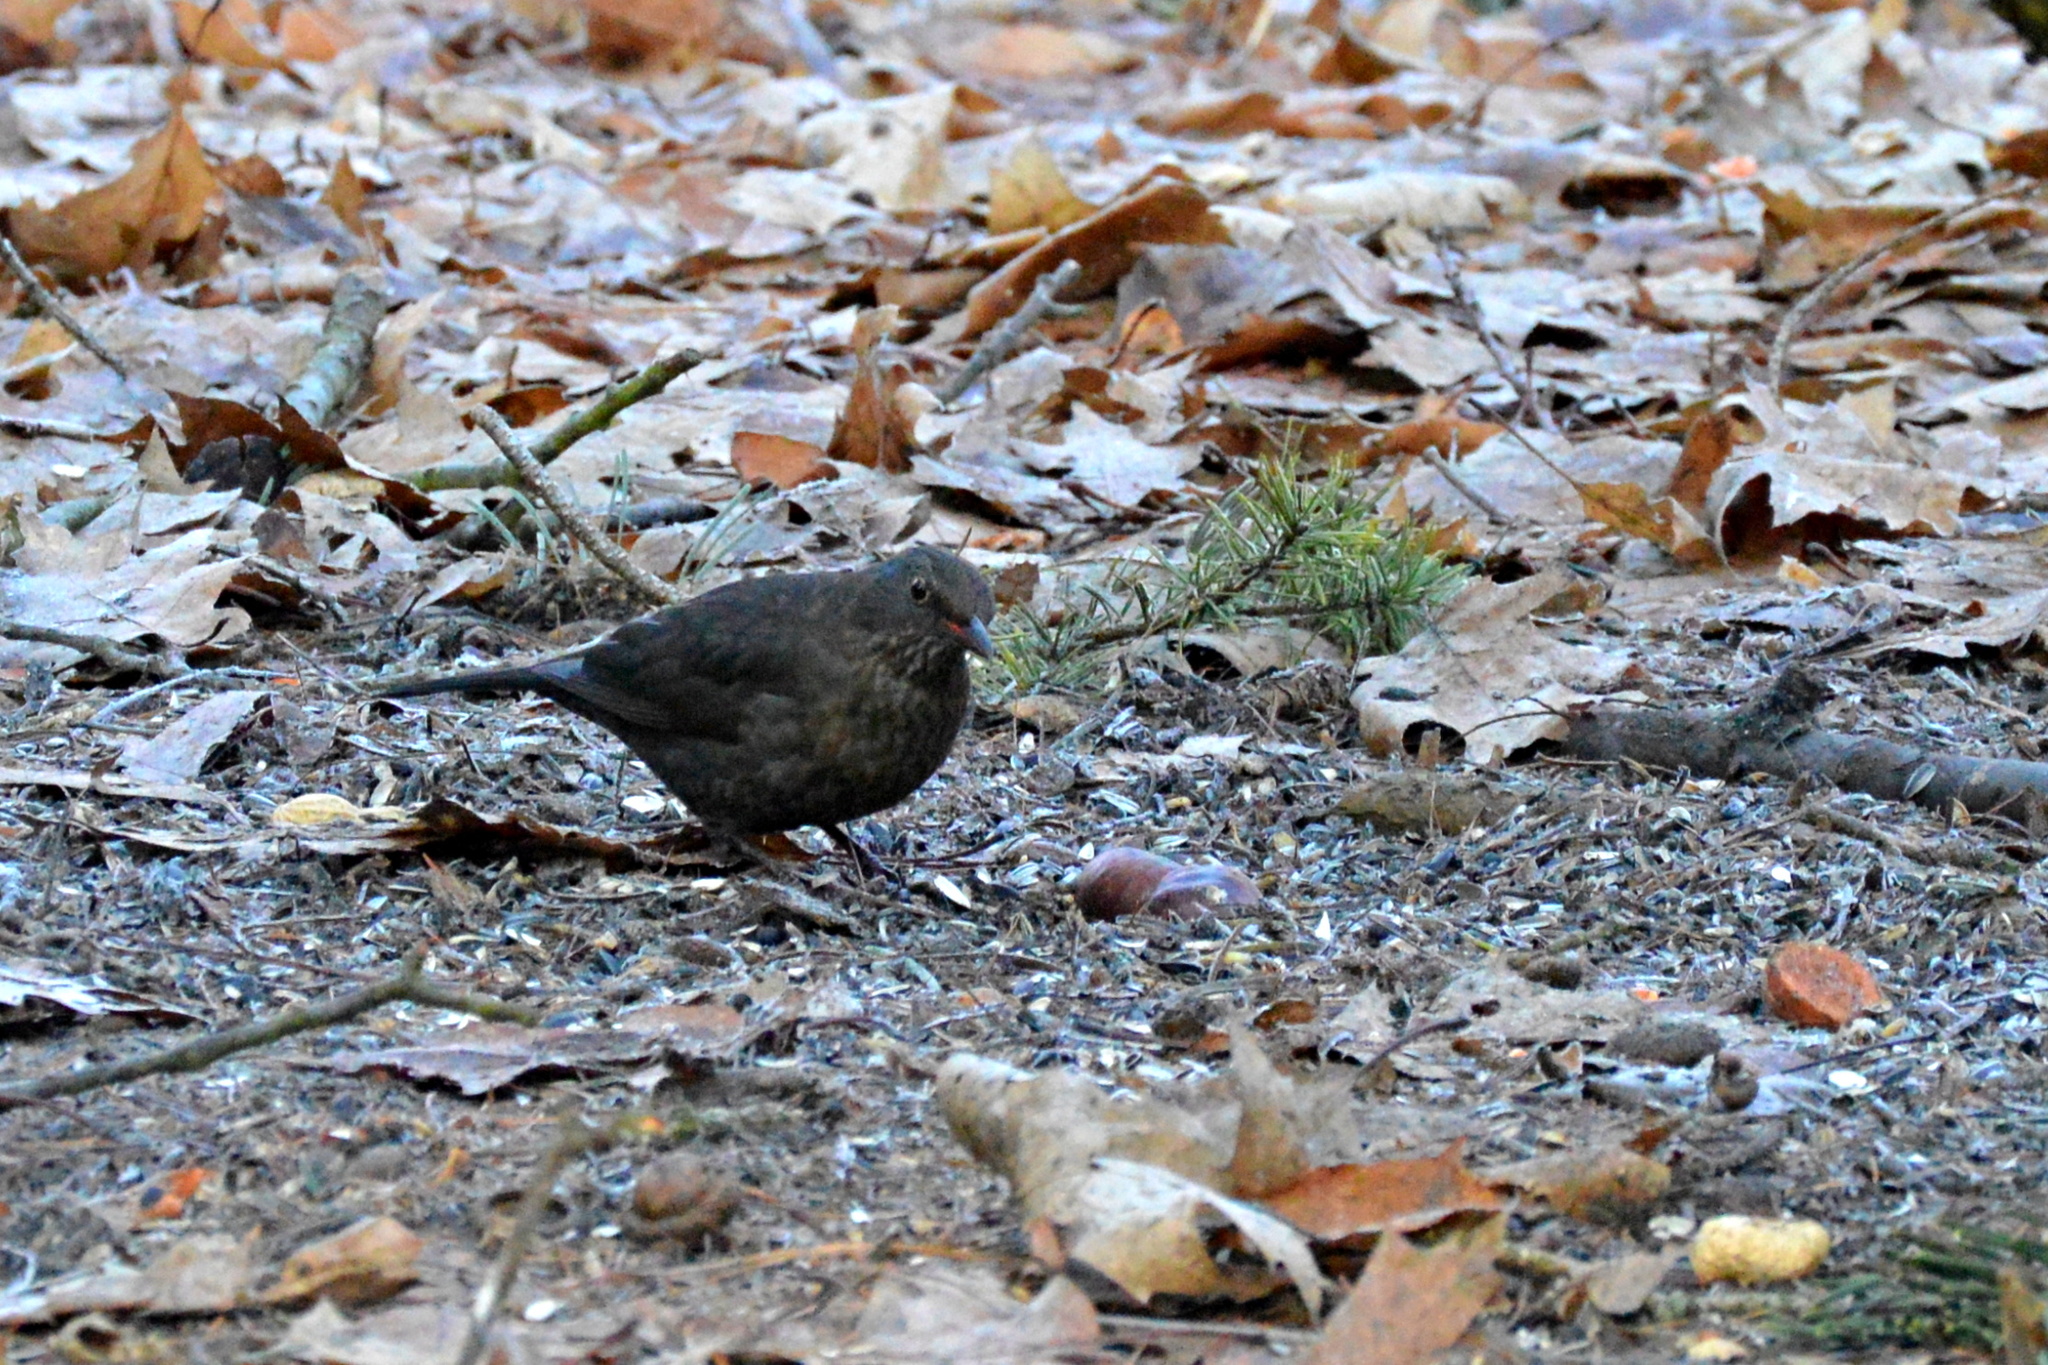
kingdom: Animalia
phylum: Chordata
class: Aves
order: Passeriformes
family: Turdidae
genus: Turdus
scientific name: Turdus merula
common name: Common blackbird
